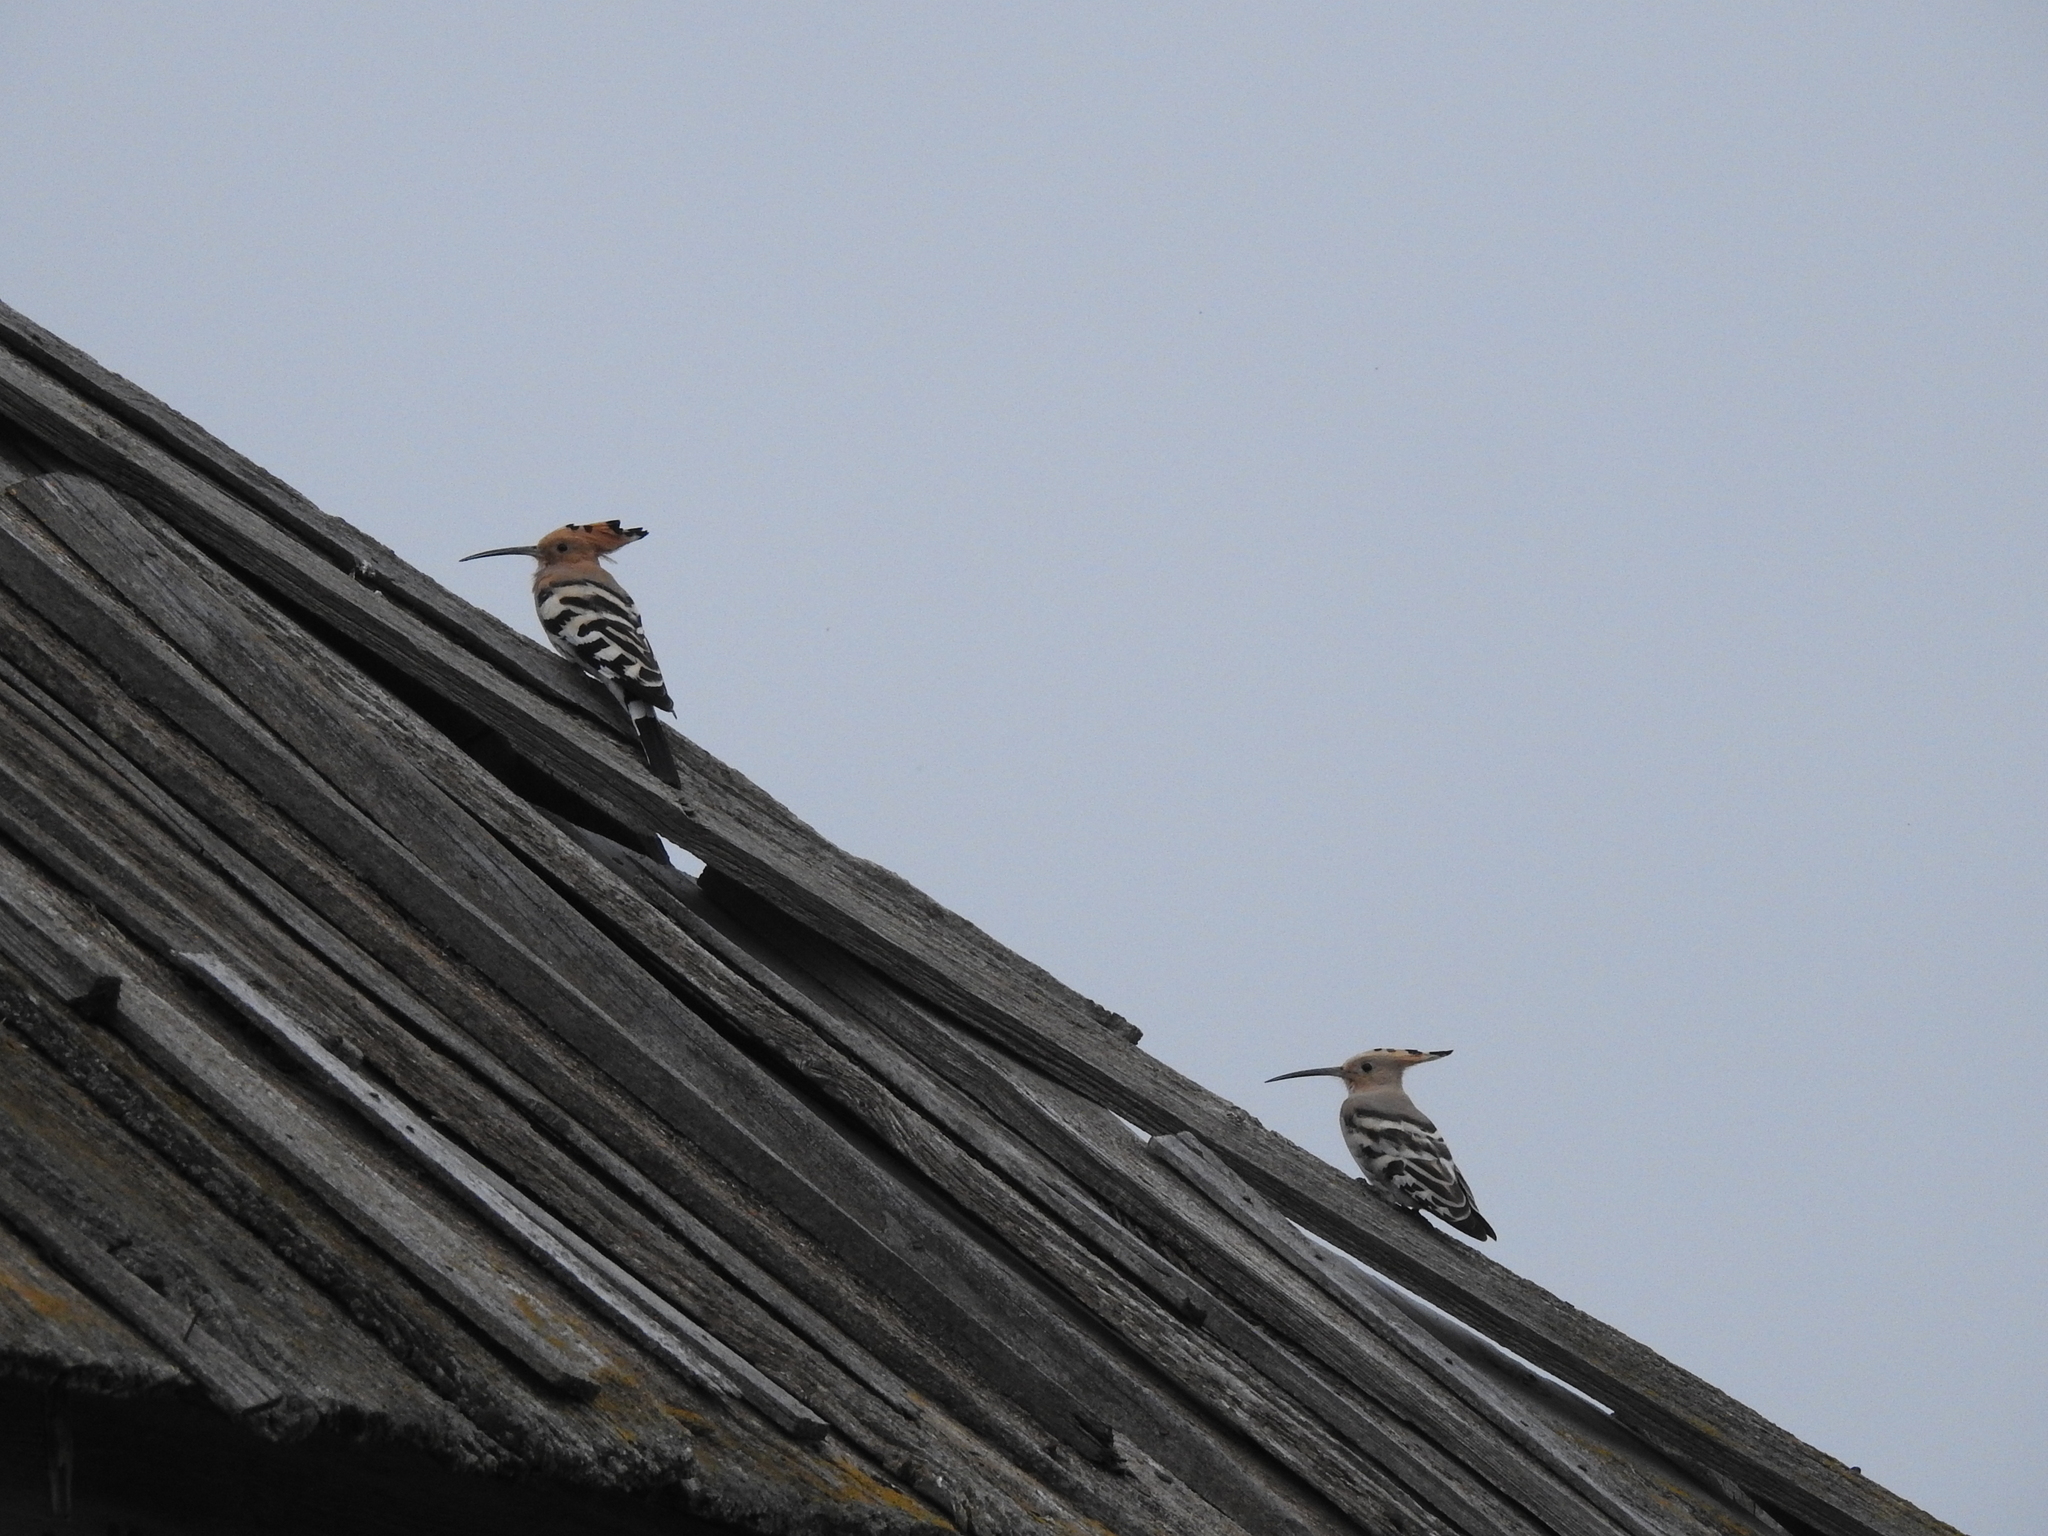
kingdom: Animalia
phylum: Chordata
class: Aves
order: Bucerotiformes
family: Upupidae
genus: Upupa
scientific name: Upupa epops
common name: Eurasian hoopoe
